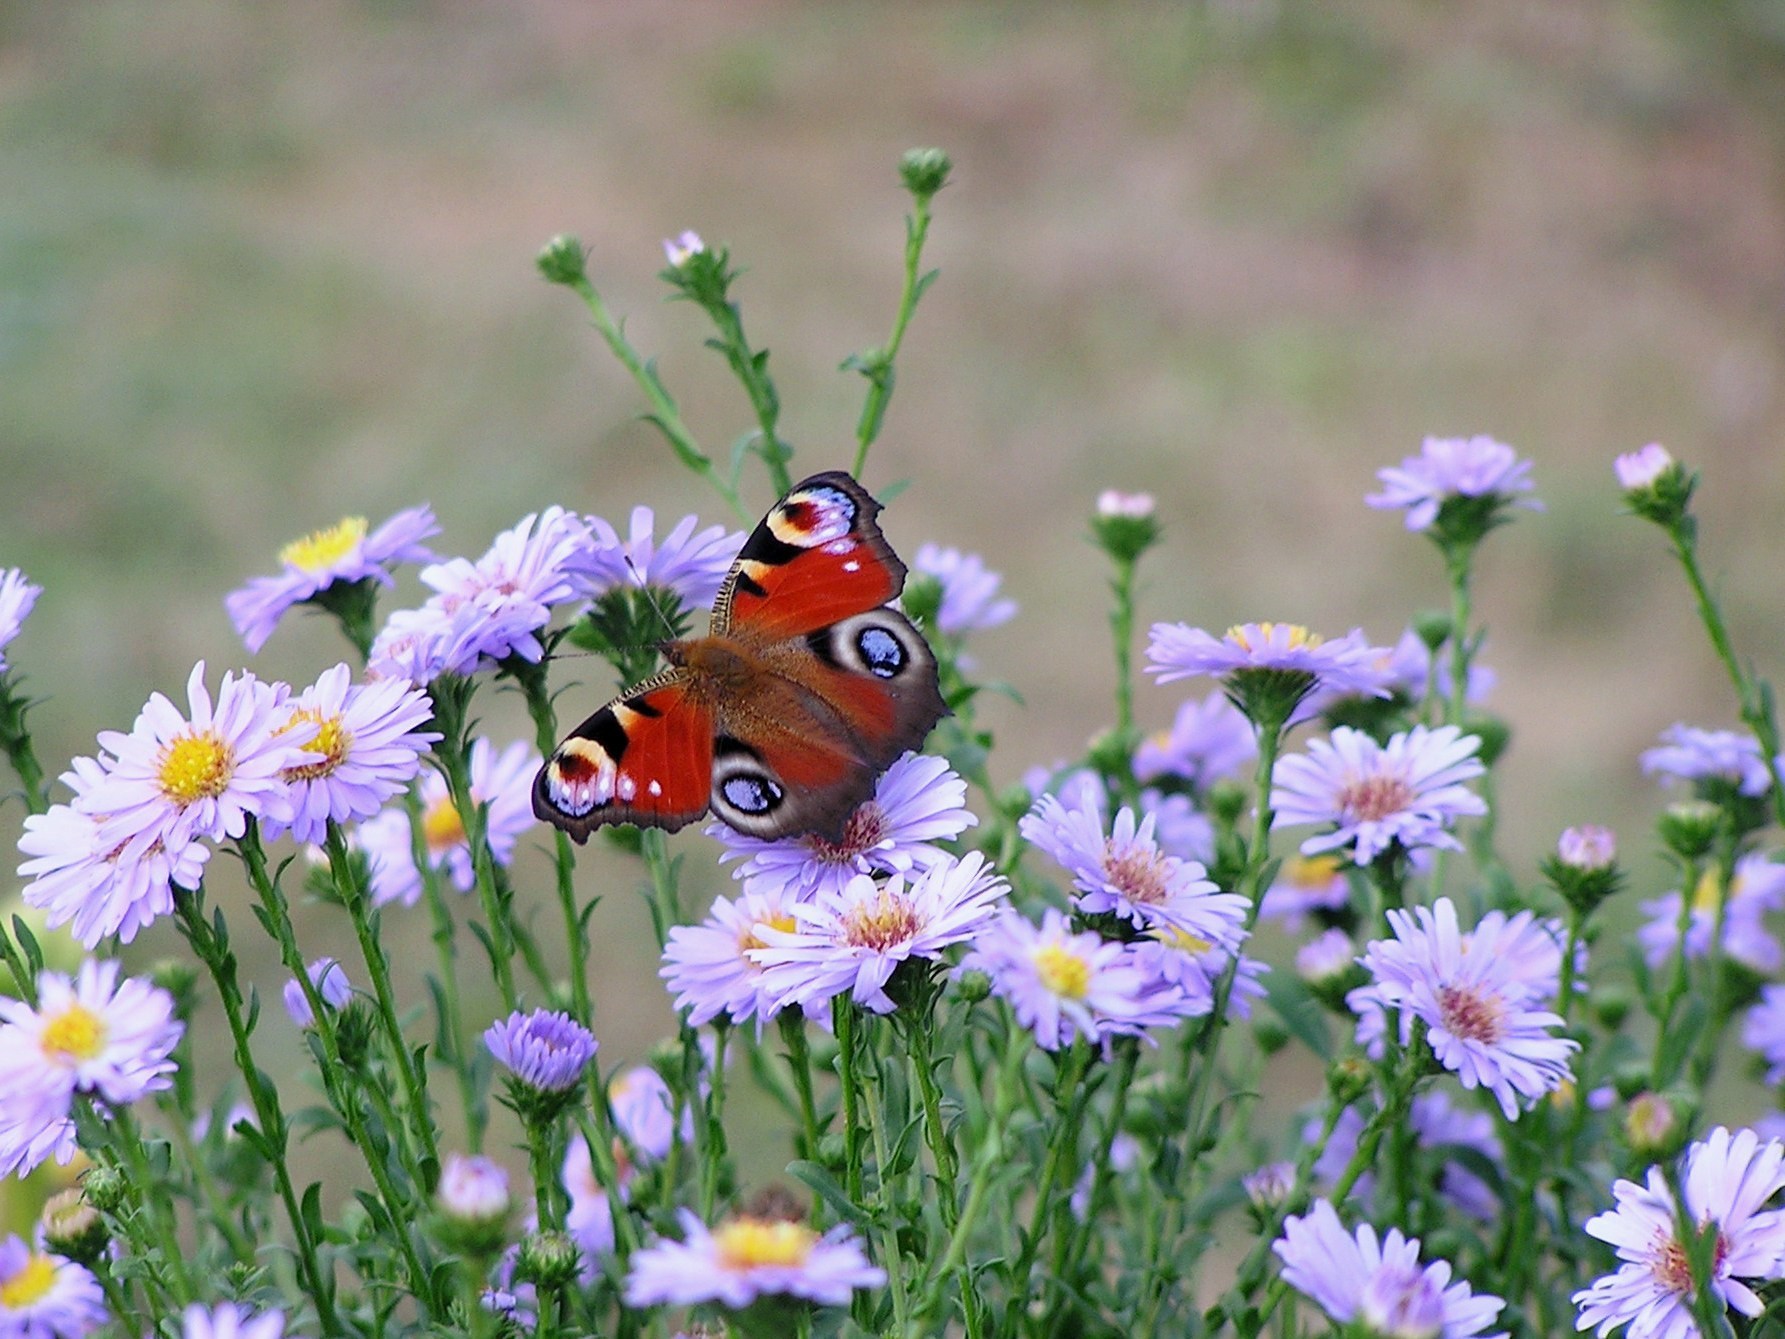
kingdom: Animalia
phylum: Arthropoda
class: Insecta
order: Lepidoptera
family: Nymphalidae
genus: Aglais
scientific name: Aglais io
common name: Peacock
